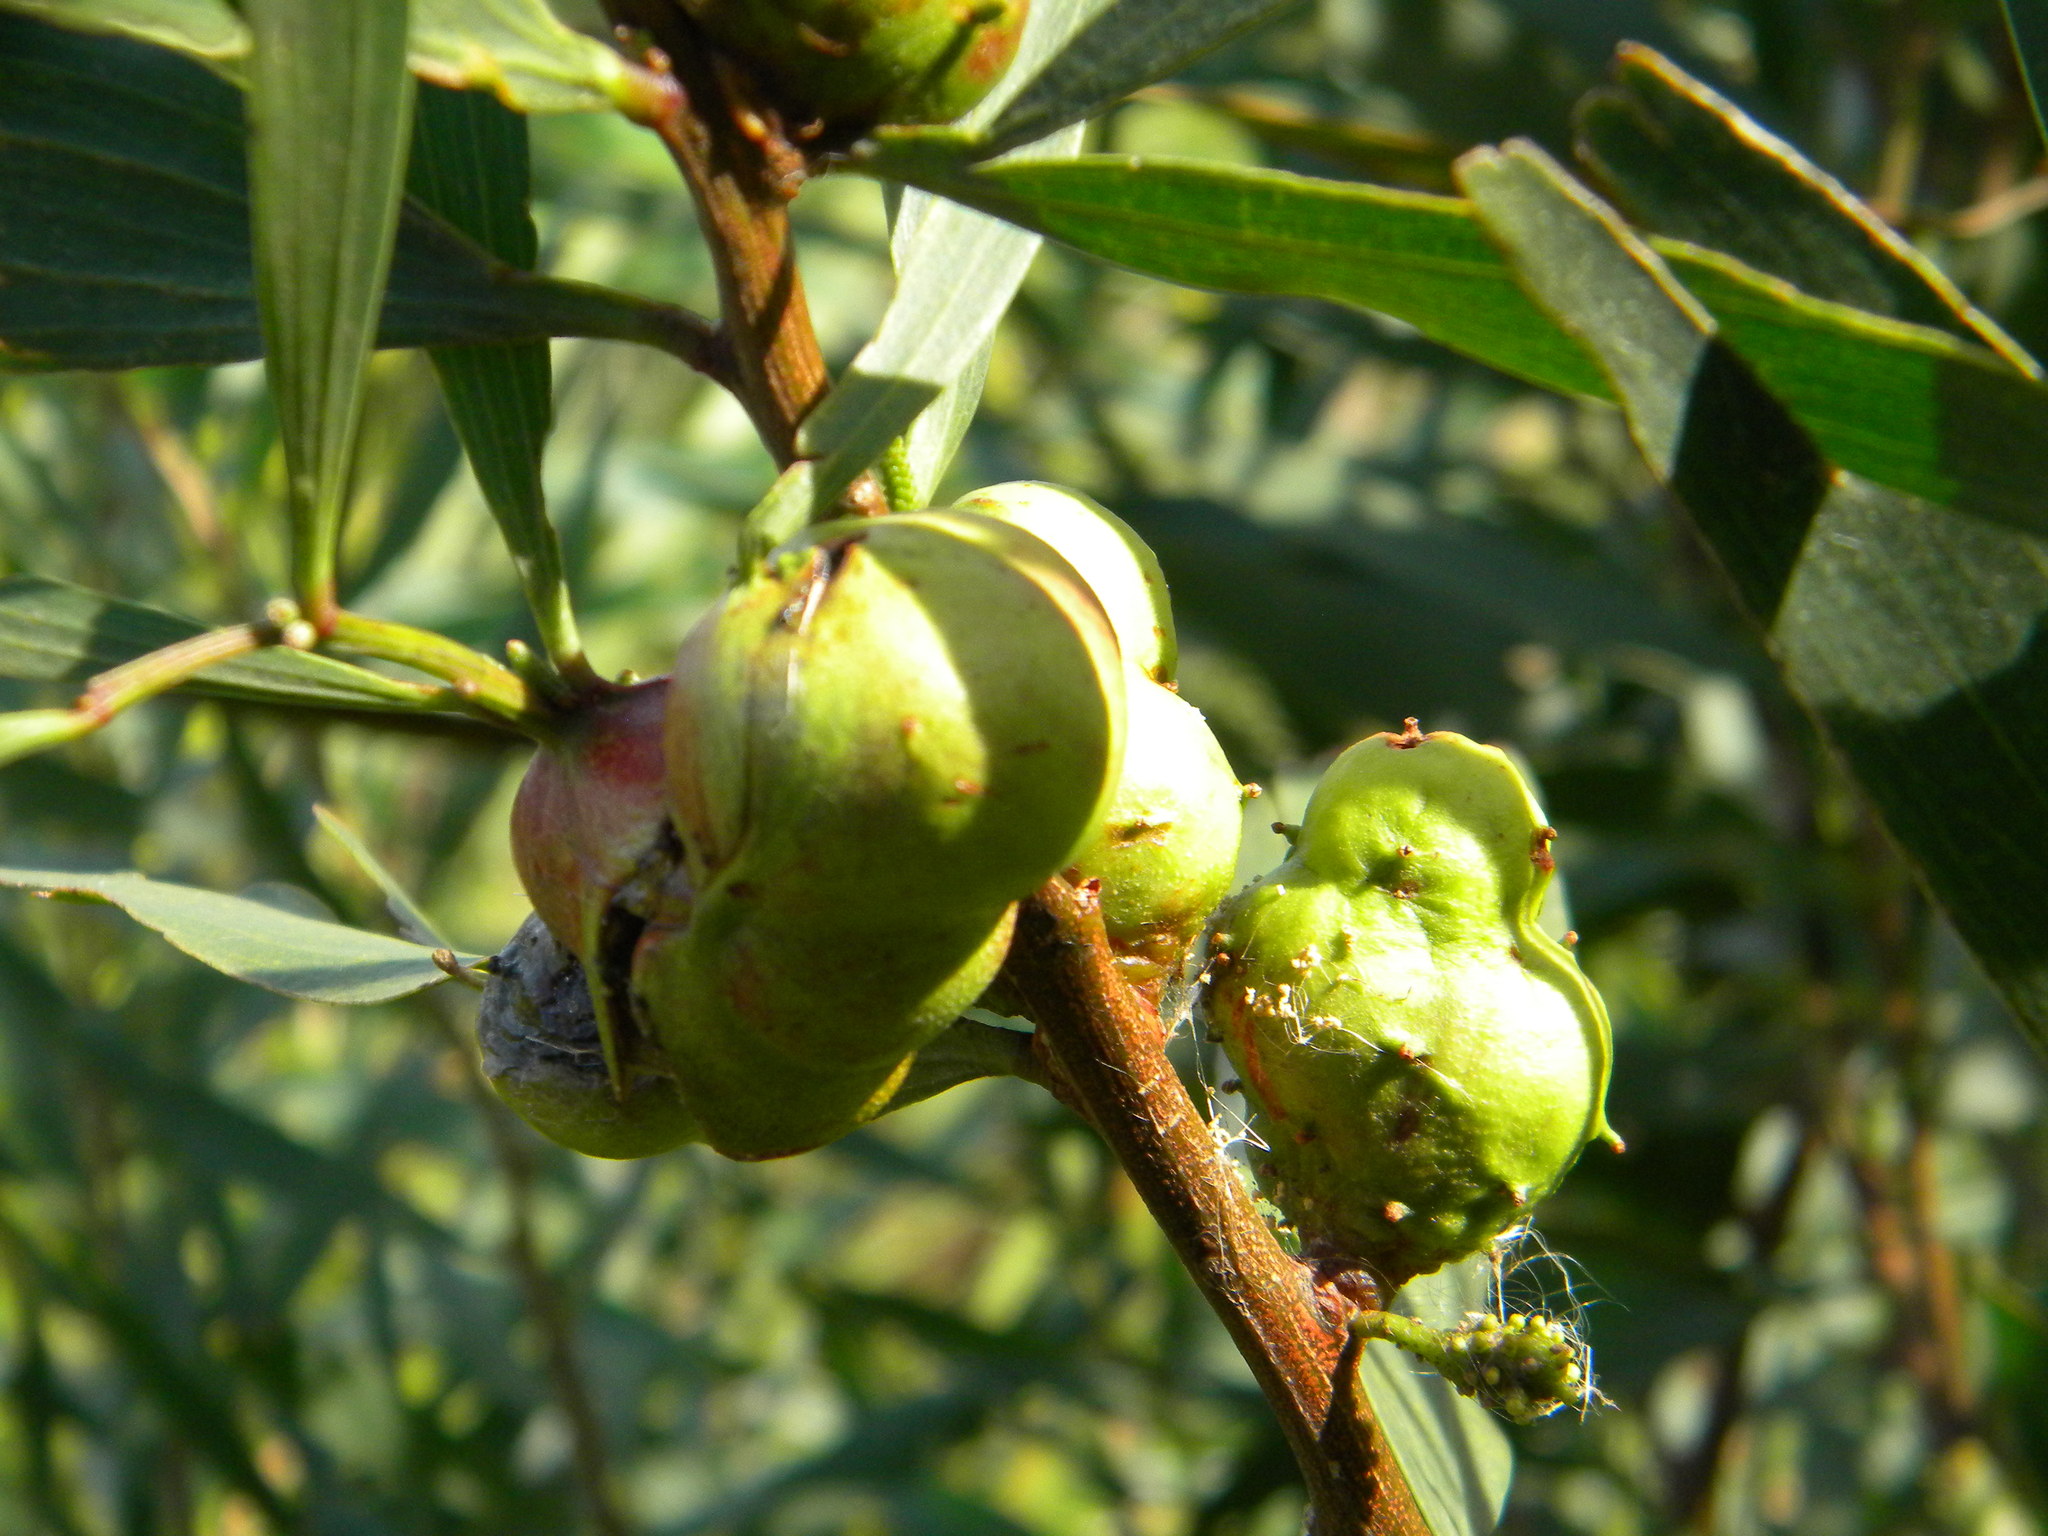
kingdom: Animalia
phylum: Arthropoda
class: Insecta
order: Hymenoptera
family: Pteromalidae
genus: Trichilogaster
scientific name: Trichilogaster acaciaelongifoliae
